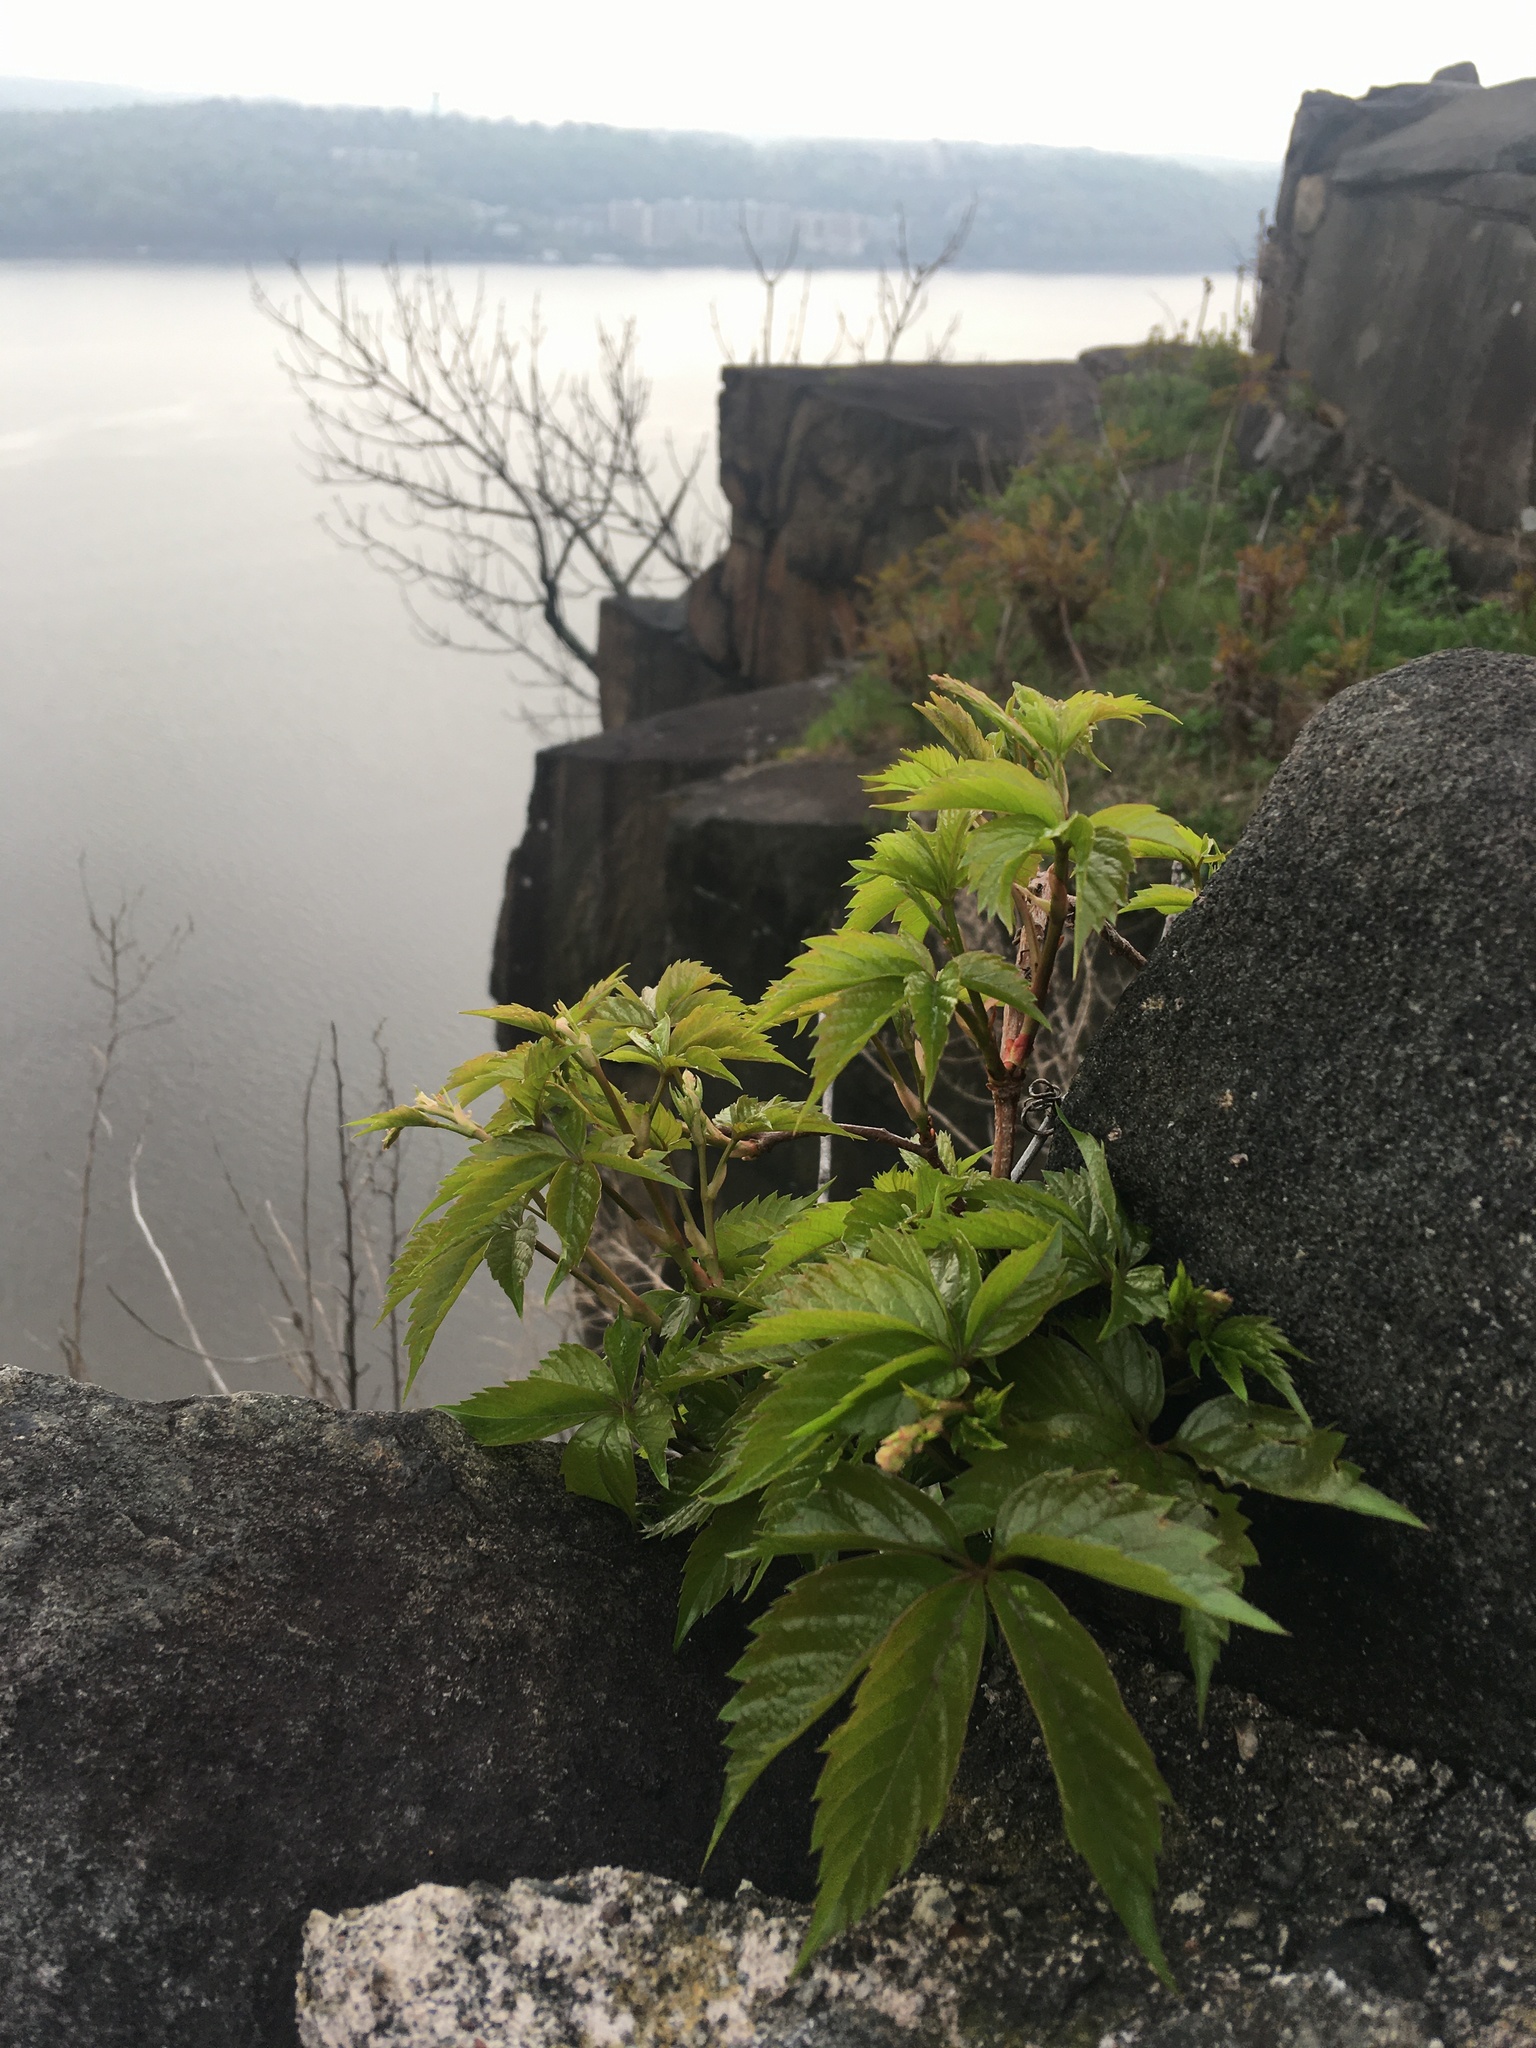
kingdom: Plantae
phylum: Tracheophyta
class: Magnoliopsida
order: Vitales
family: Vitaceae
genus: Parthenocissus
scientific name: Parthenocissus quinquefolia
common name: Virginia-creeper
